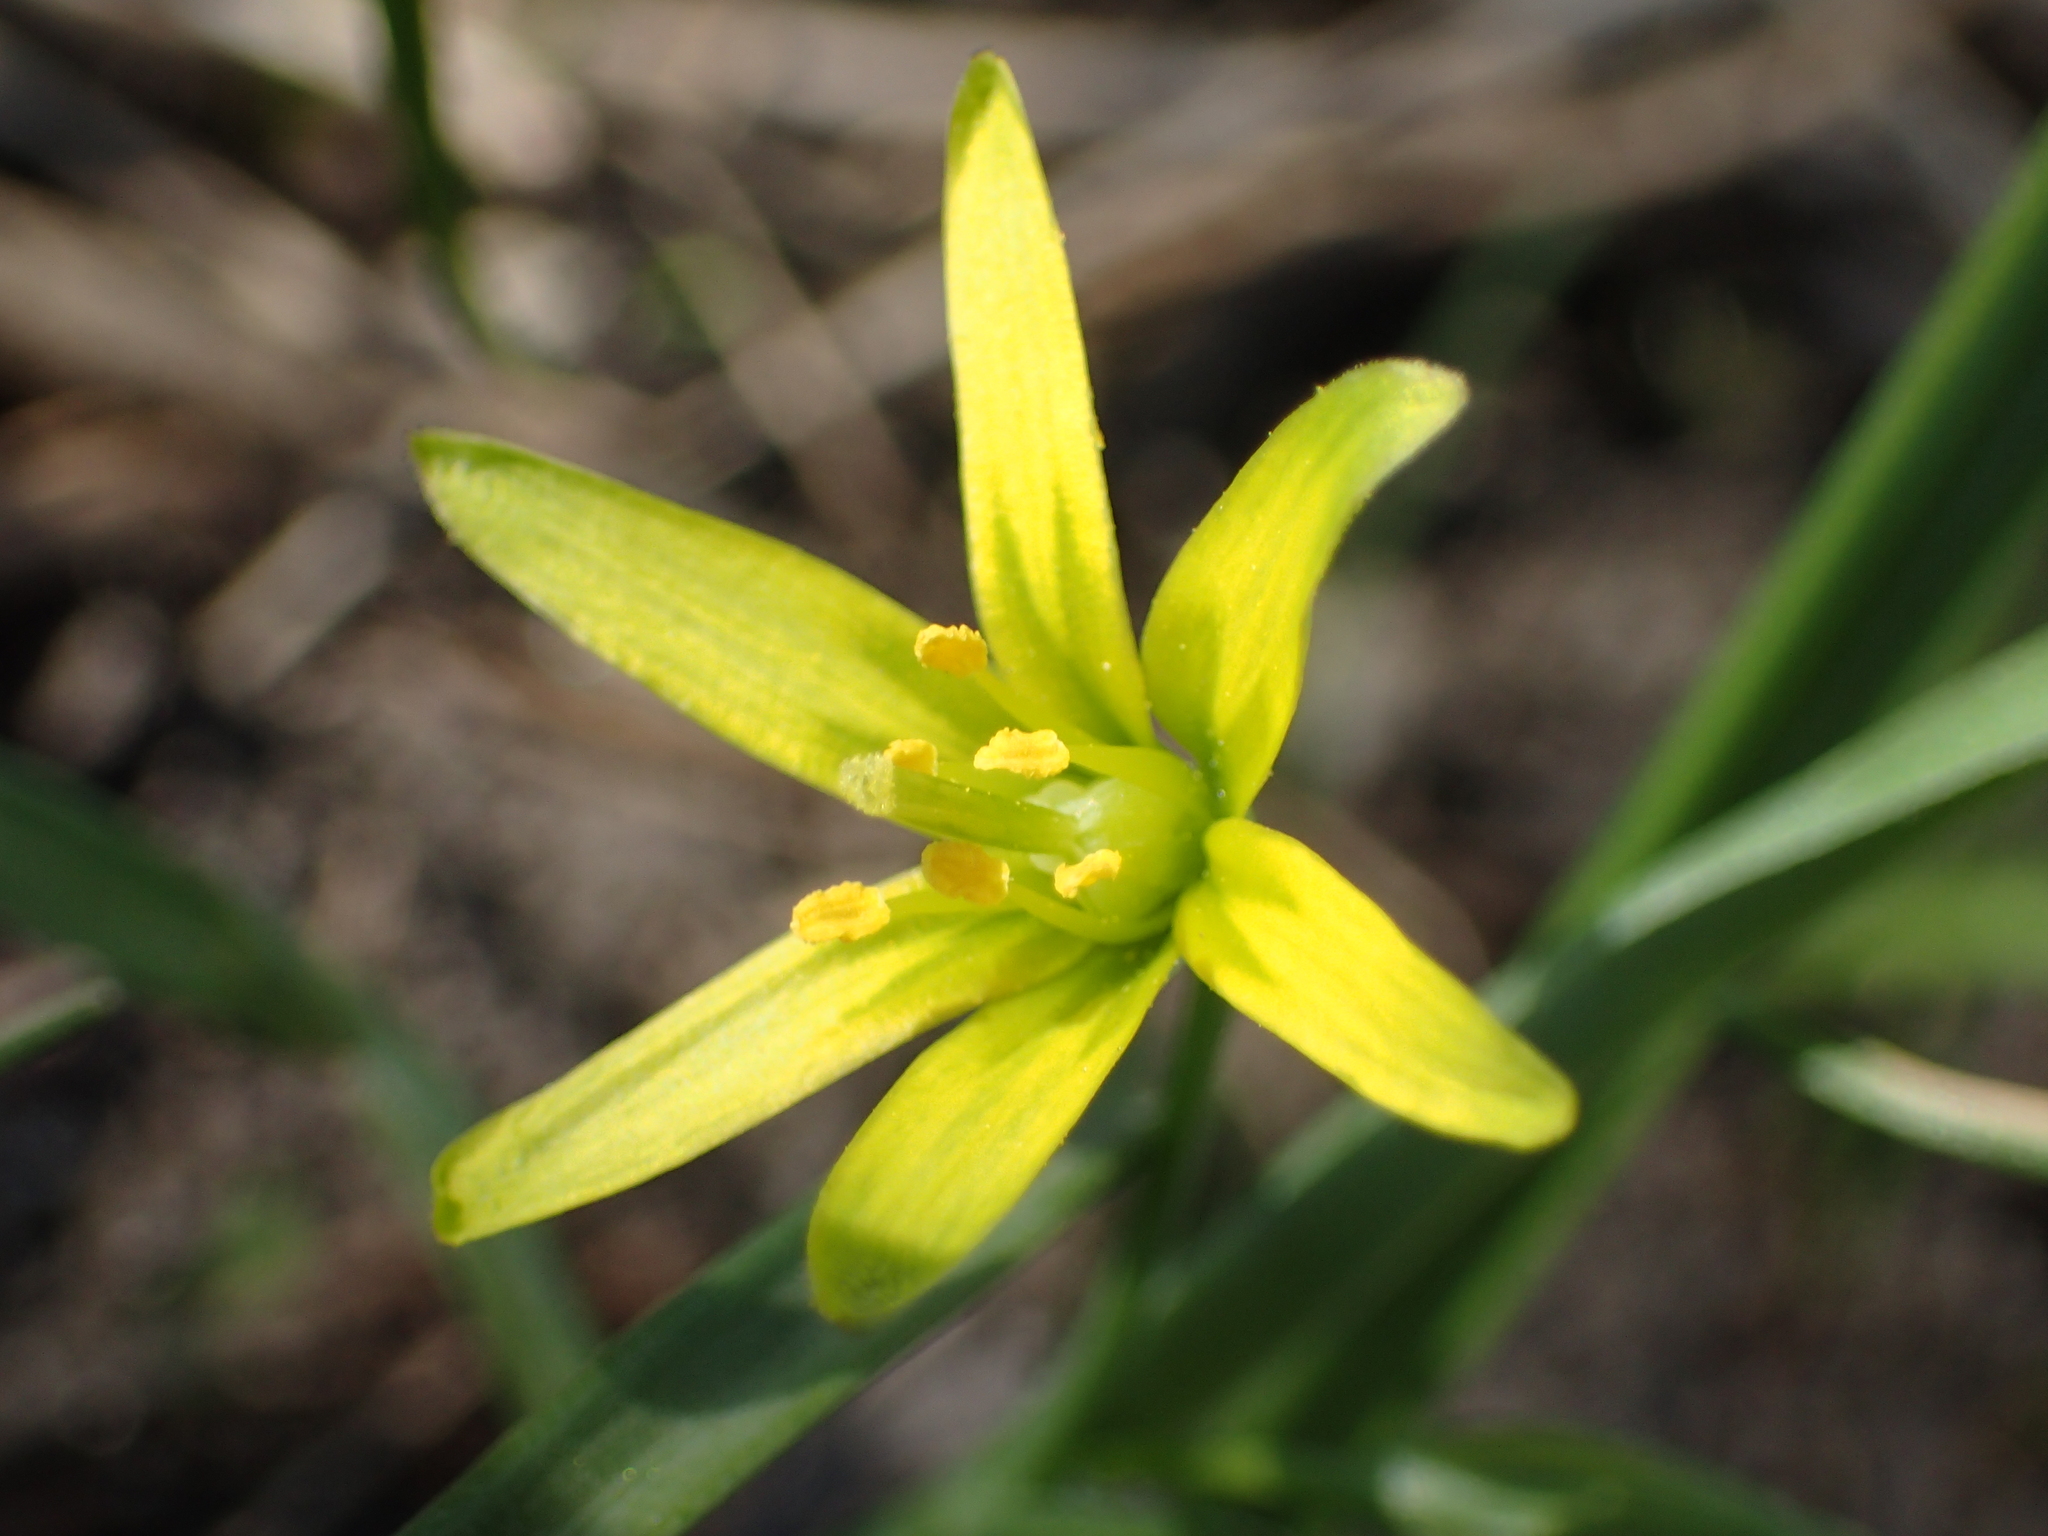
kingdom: Plantae
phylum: Tracheophyta
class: Liliopsida
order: Liliales
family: Liliaceae
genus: Gagea
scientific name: Gagea pratensis
